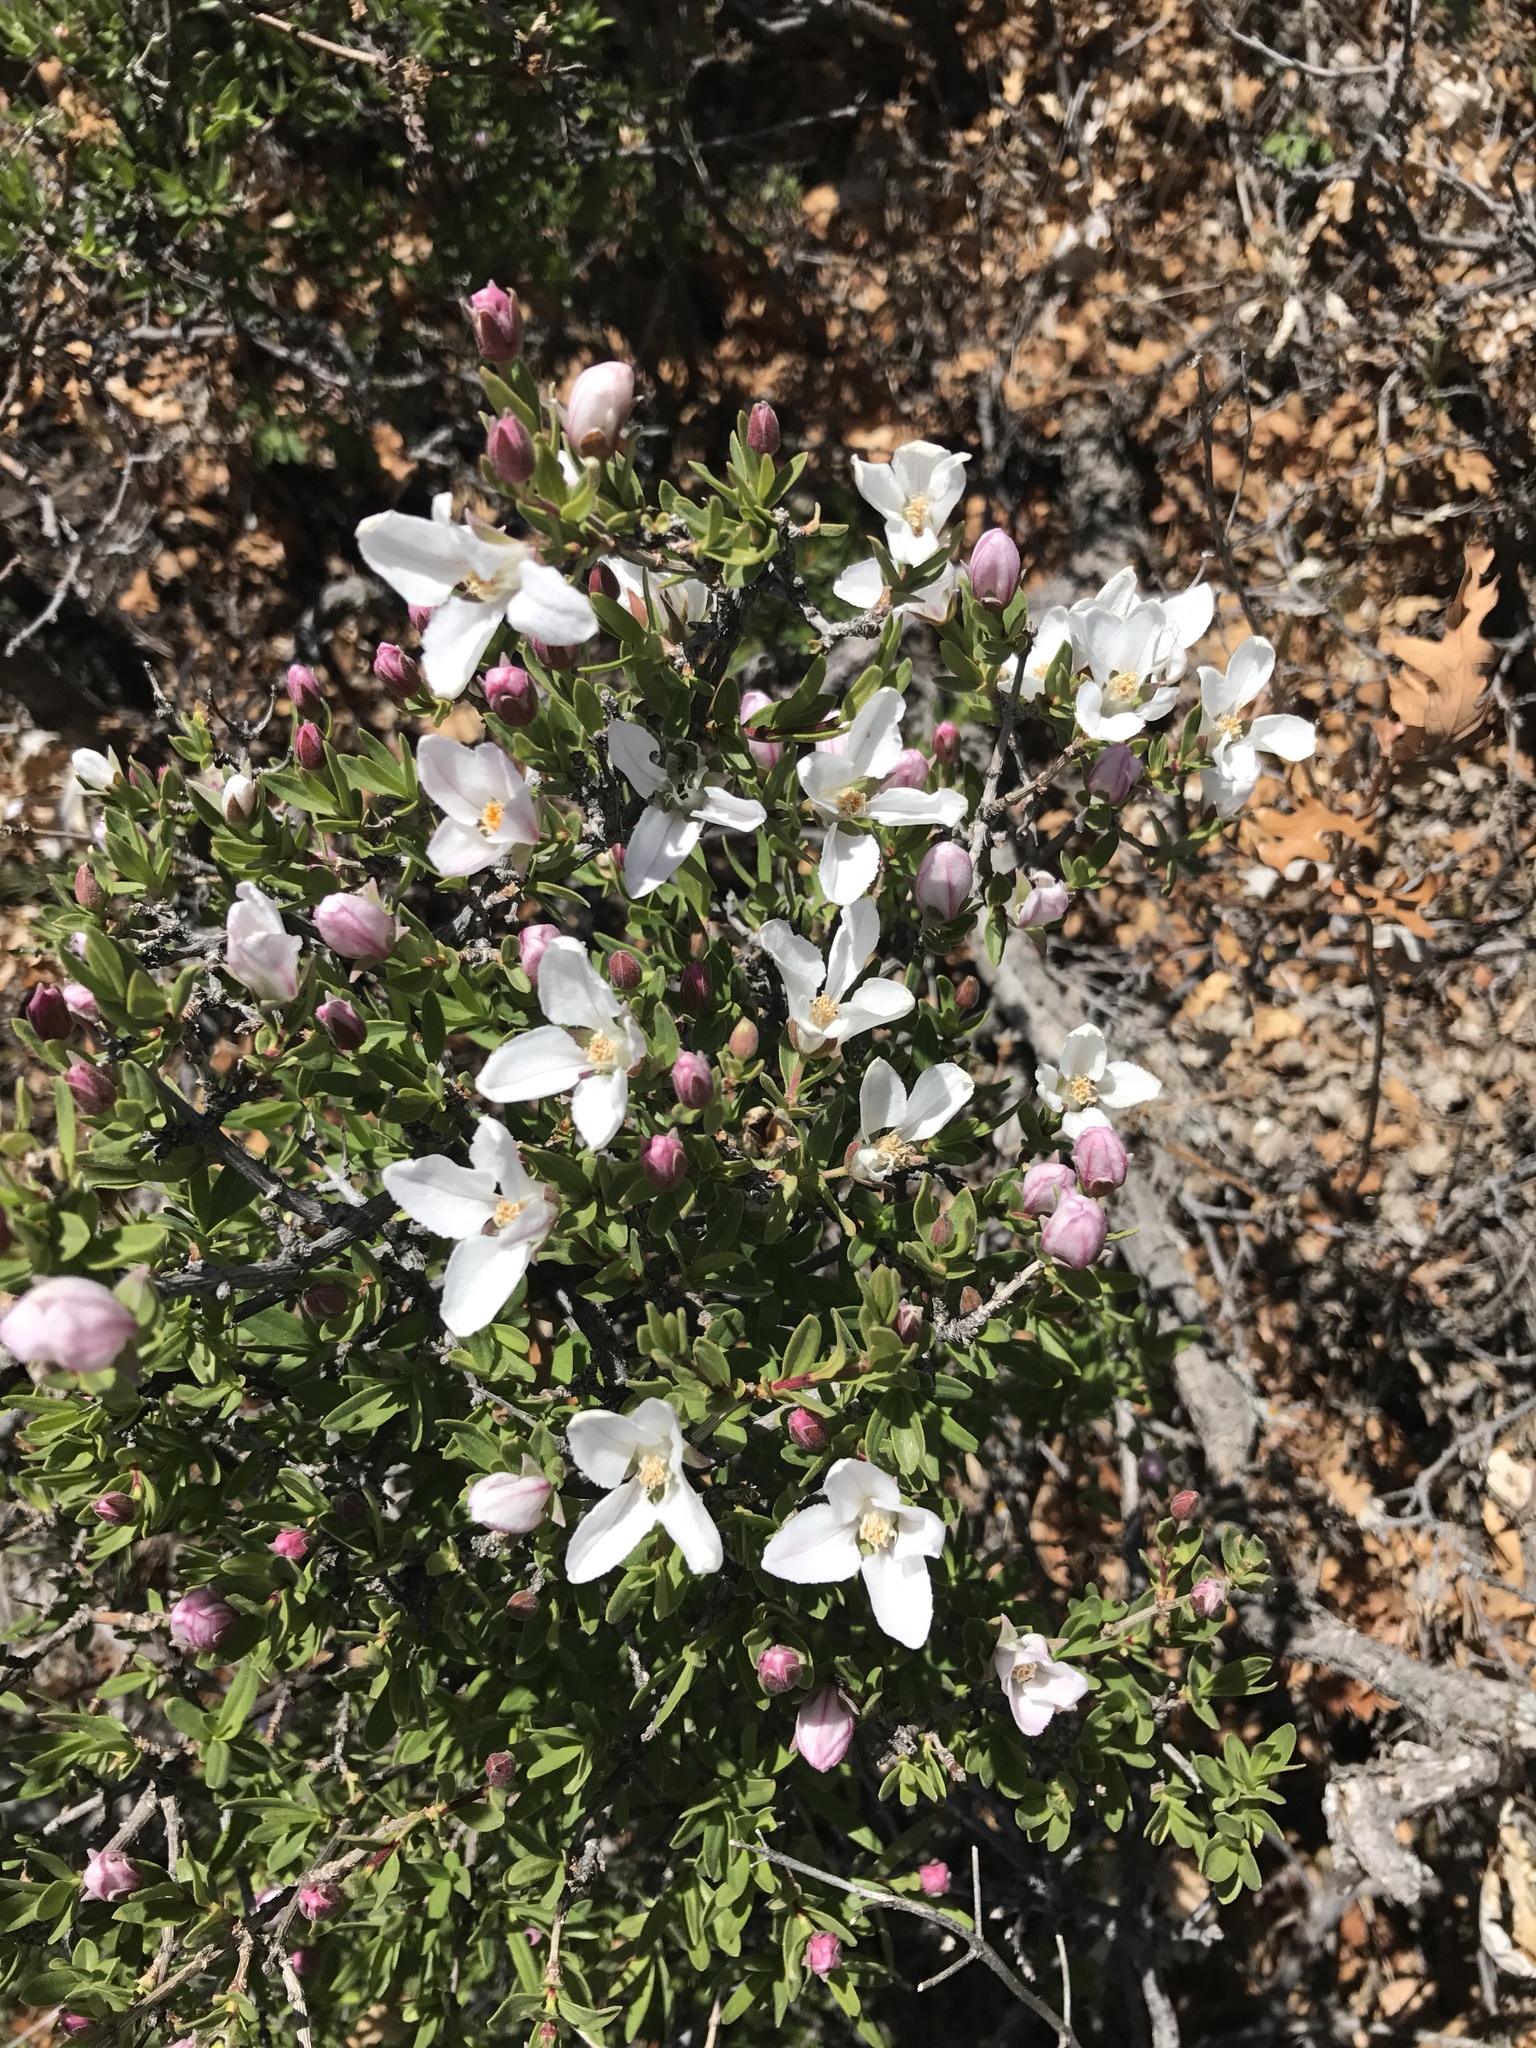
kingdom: Plantae
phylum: Tracheophyta
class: Magnoliopsida
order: Cornales
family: Hydrangeaceae
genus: Fendlera
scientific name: Fendlera rupicola
